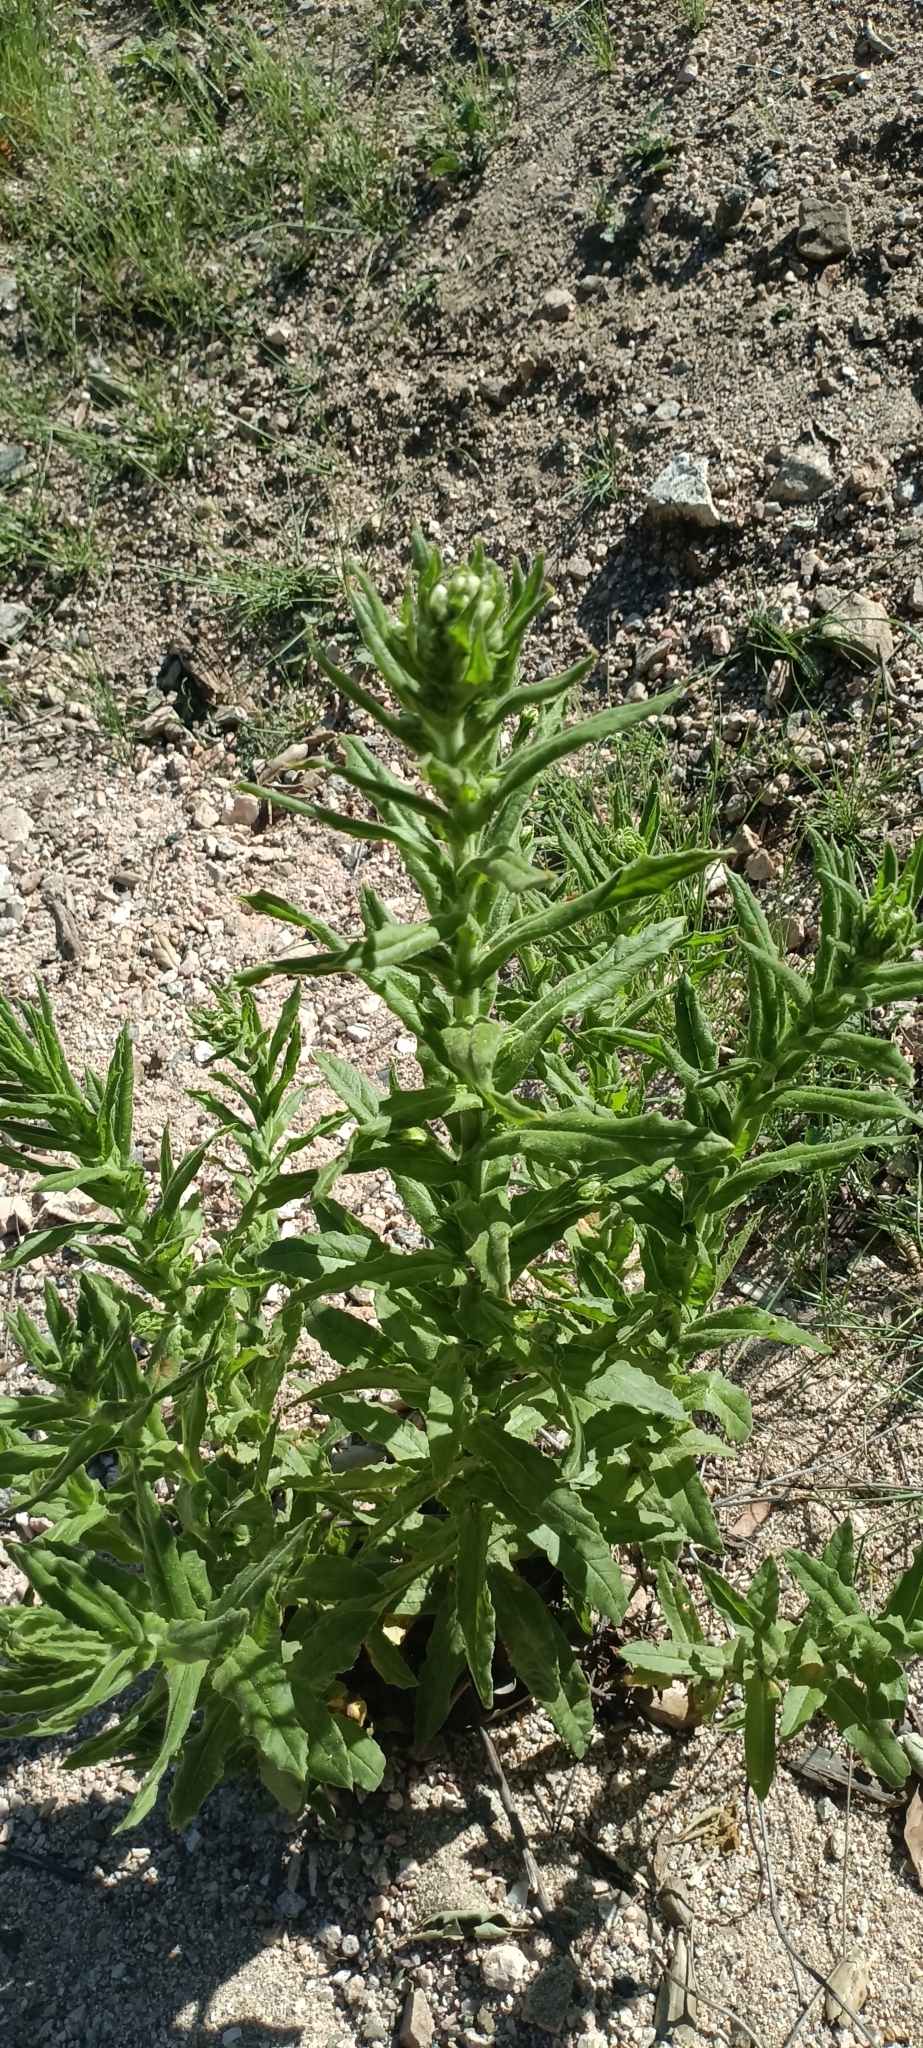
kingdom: Plantae
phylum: Tracheophyta
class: Magnoliopsida
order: Lamiales
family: Scrophulariaceae
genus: Verbascum
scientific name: Verbascum virgatum
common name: Twiggy mullein
